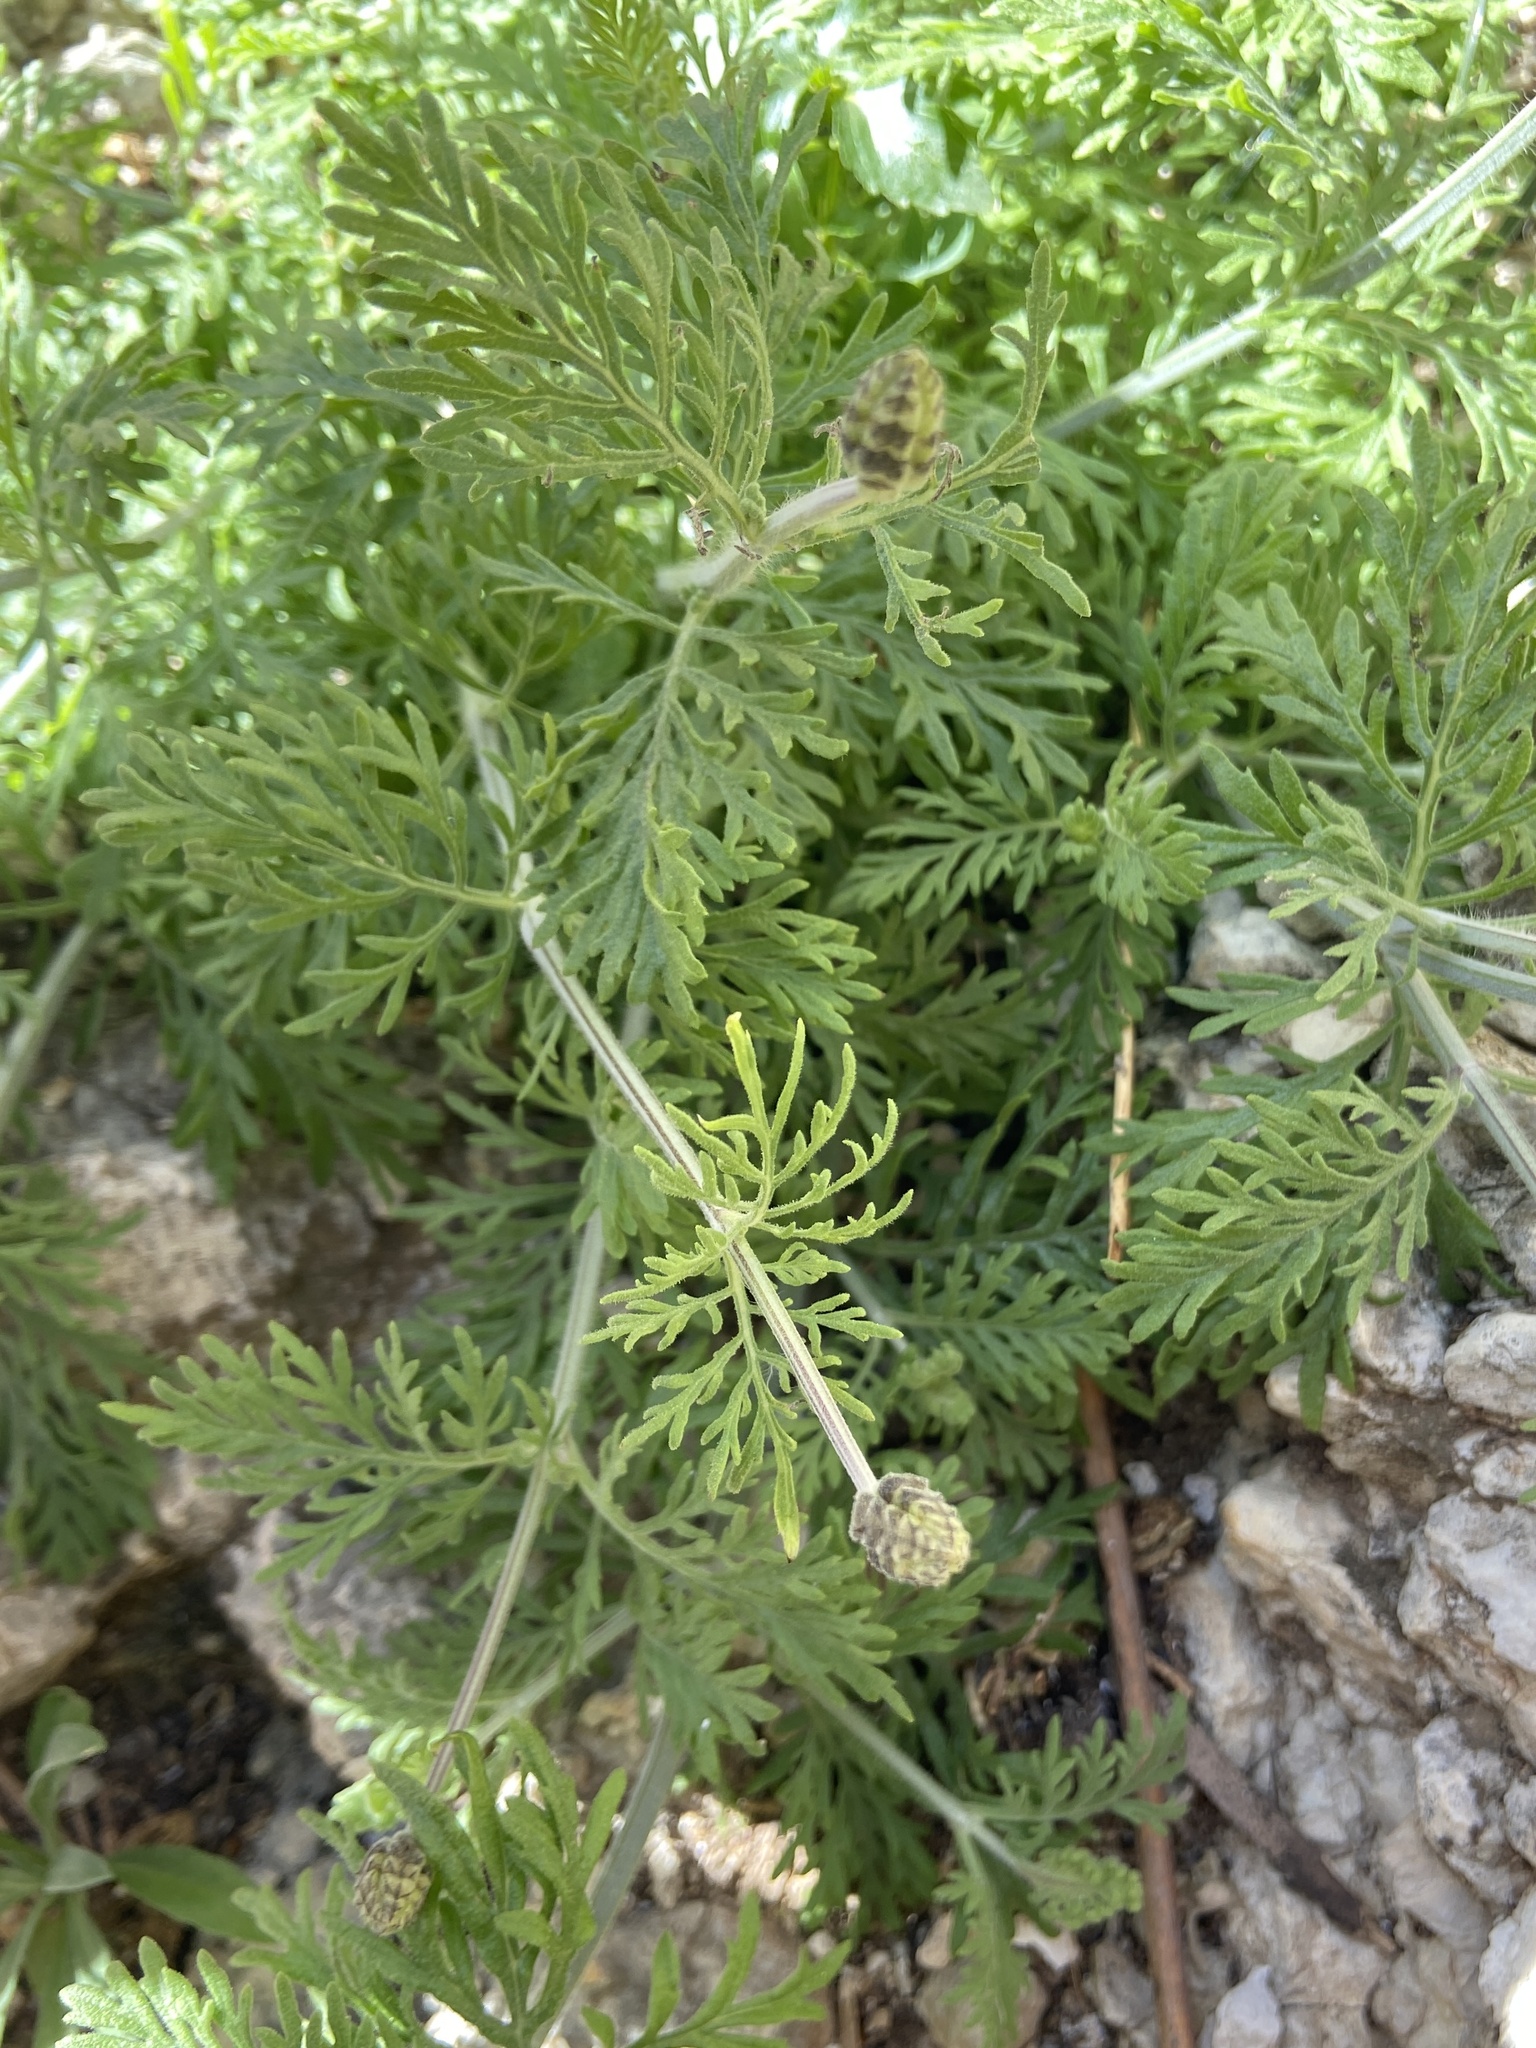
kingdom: Plantae
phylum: Tracheophyta
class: Magnoliopsida
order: Lamiales
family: Lamiaceae
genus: Lavandula
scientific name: Lavandula multifida
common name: Fern-leaf lavender
